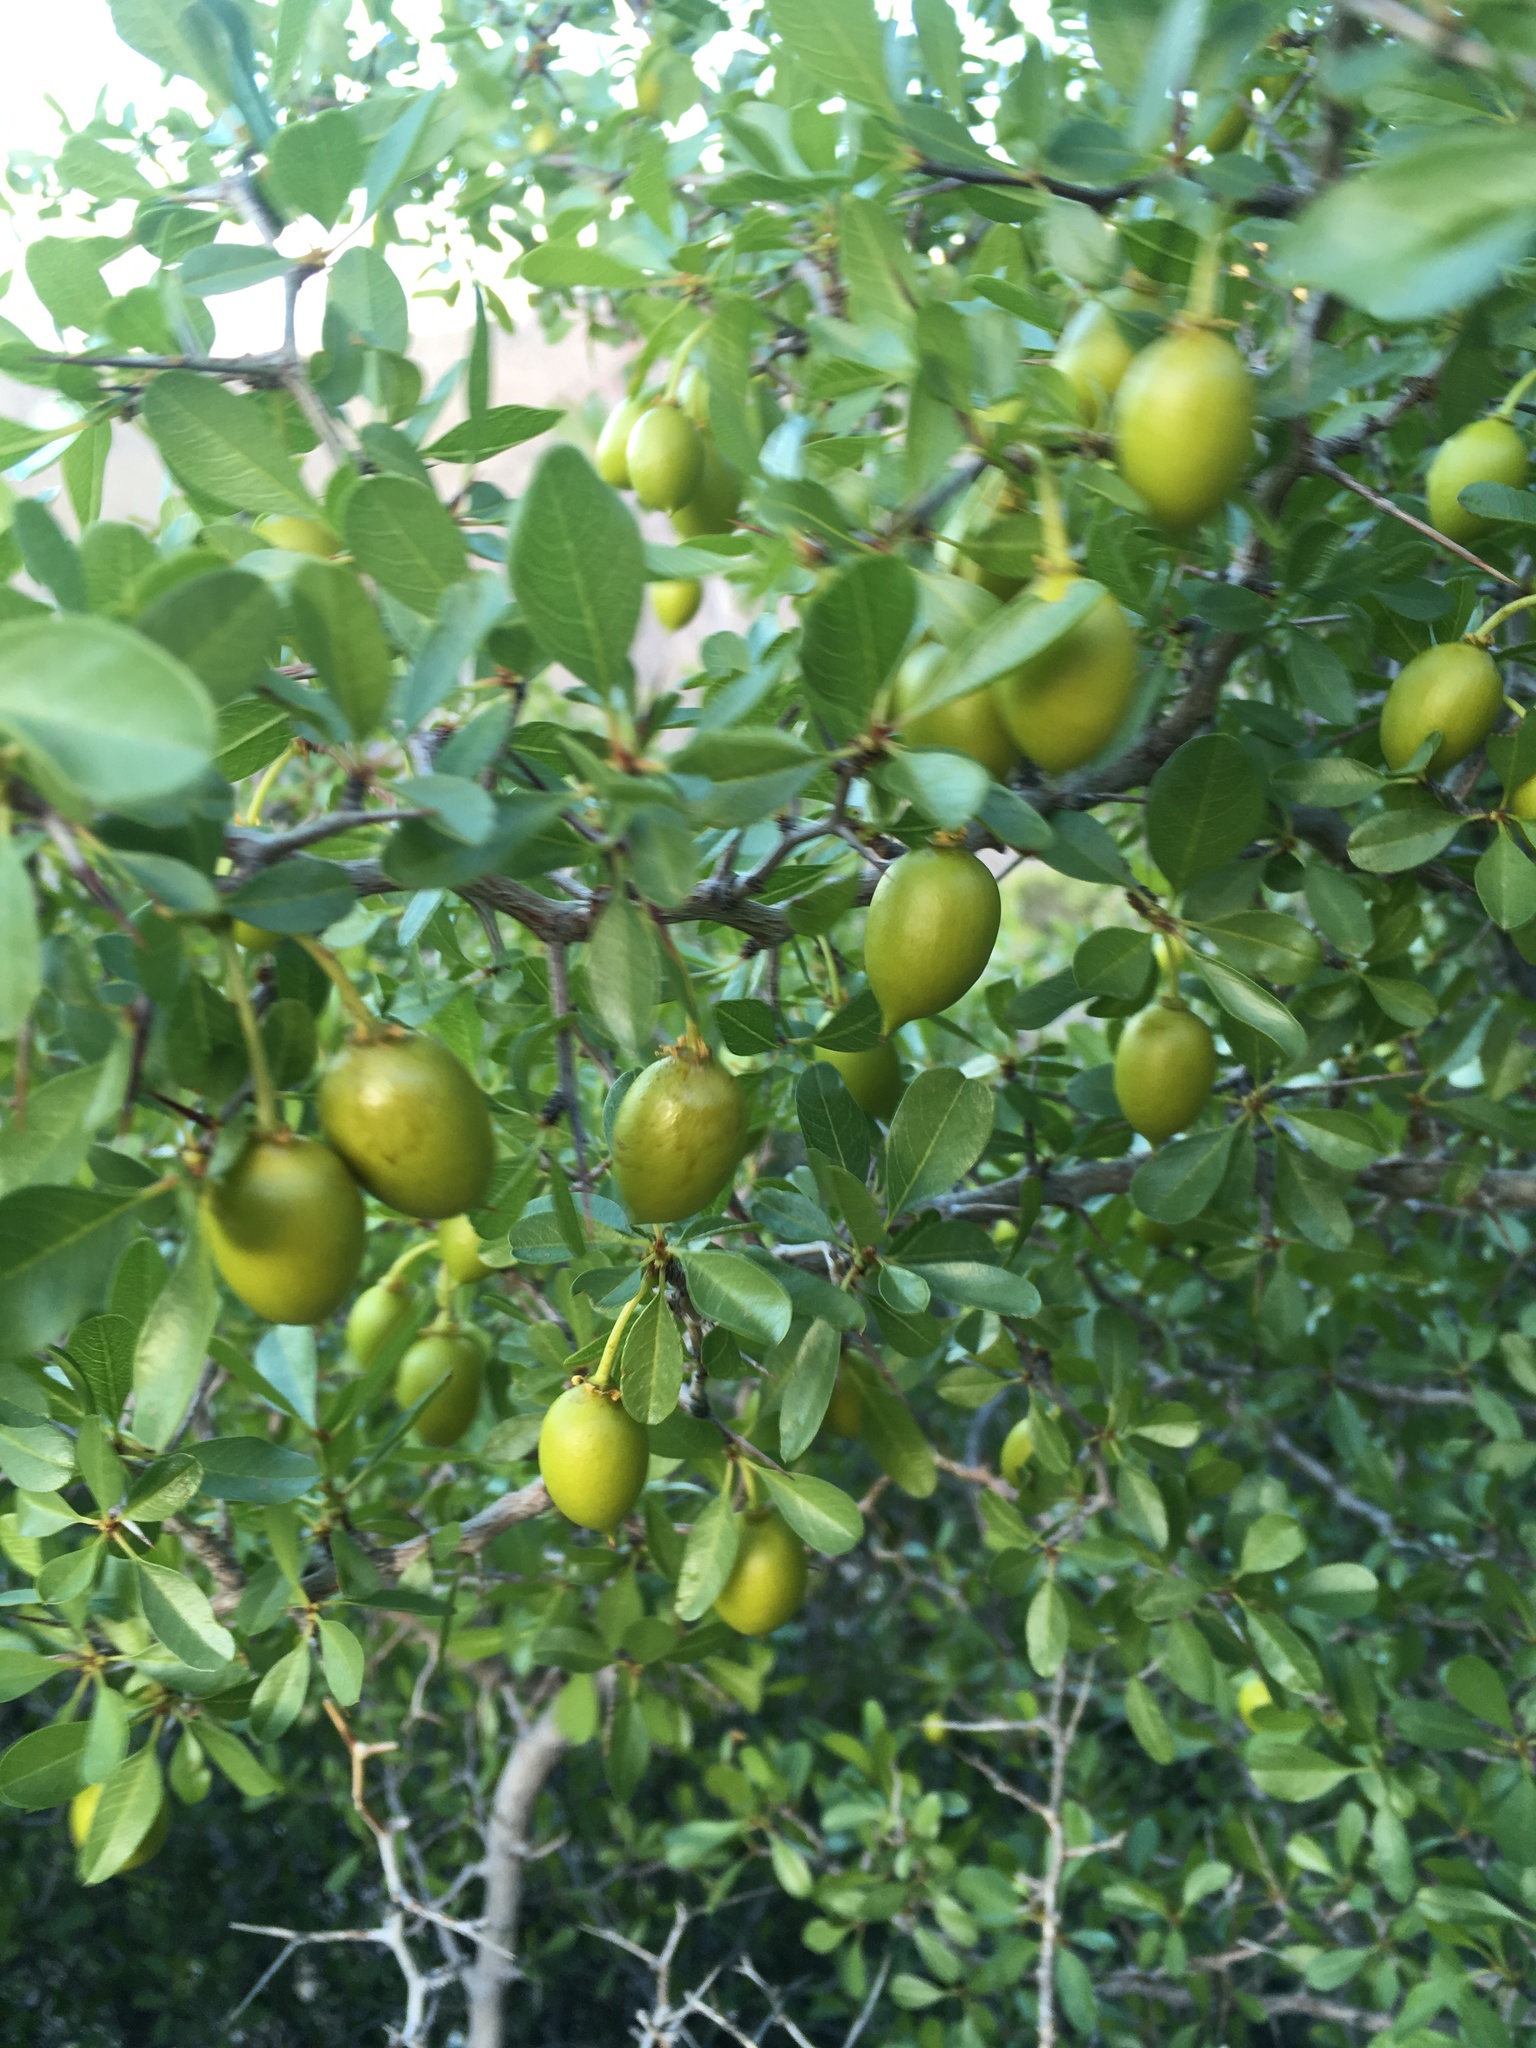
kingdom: Plantae
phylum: Tracheophyta
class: Magnoliopsida
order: Rosales
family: Rhamnaceae
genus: Pseudoziziphus
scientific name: Pseudoziziphus parryi
